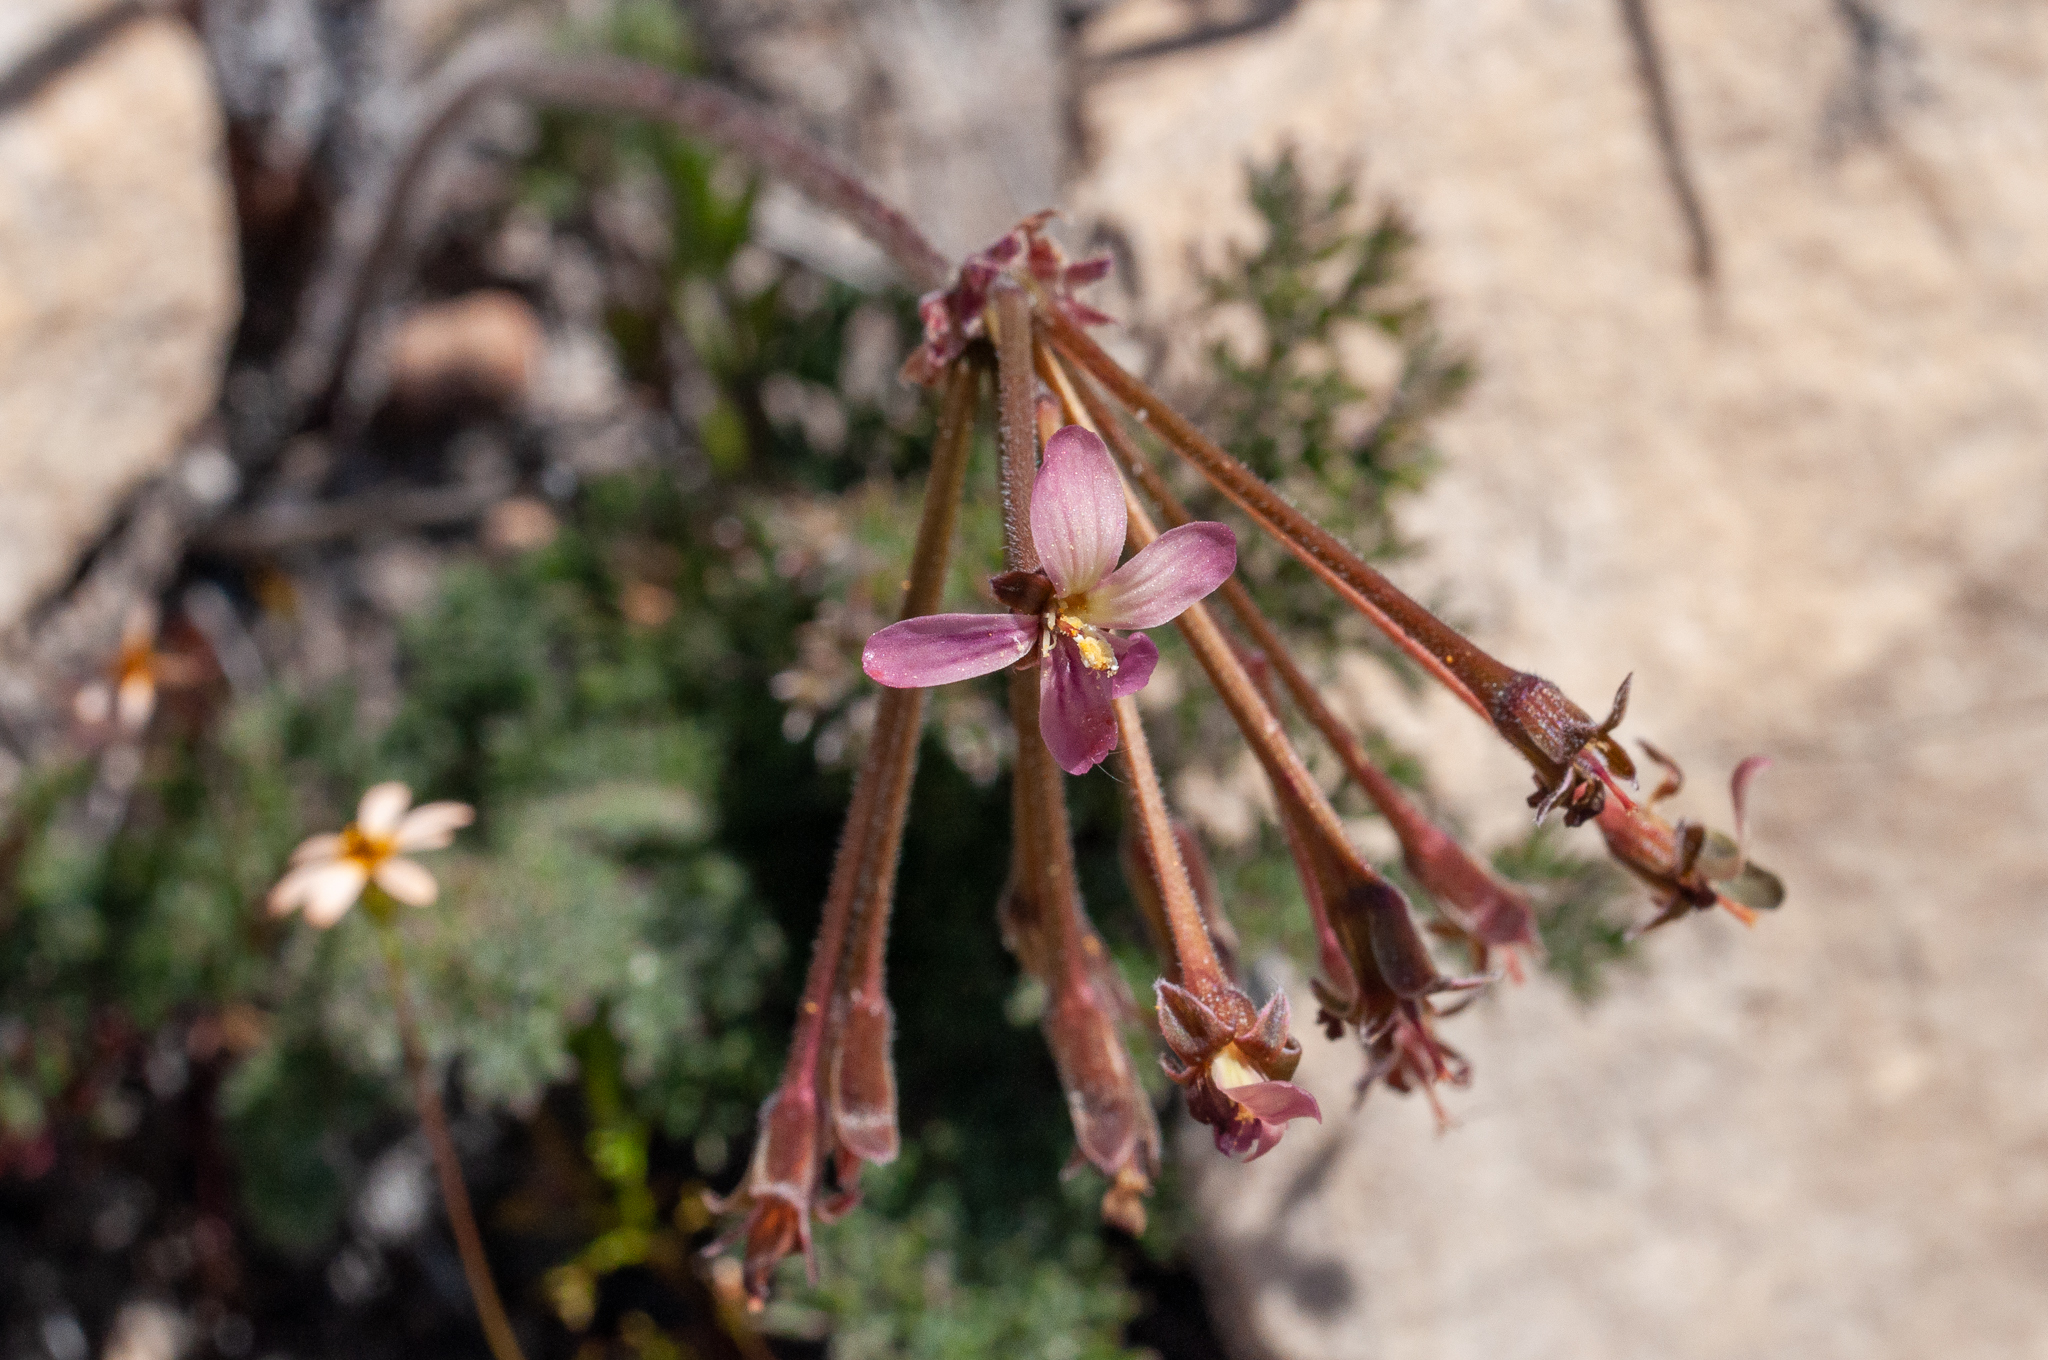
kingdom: Plantae
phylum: Tracheophyta
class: Magnoliopsida
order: Geraniales
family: Geraniaceae
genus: Pelargonium
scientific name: Pelargonium triste
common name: Night-scent pelargonium
